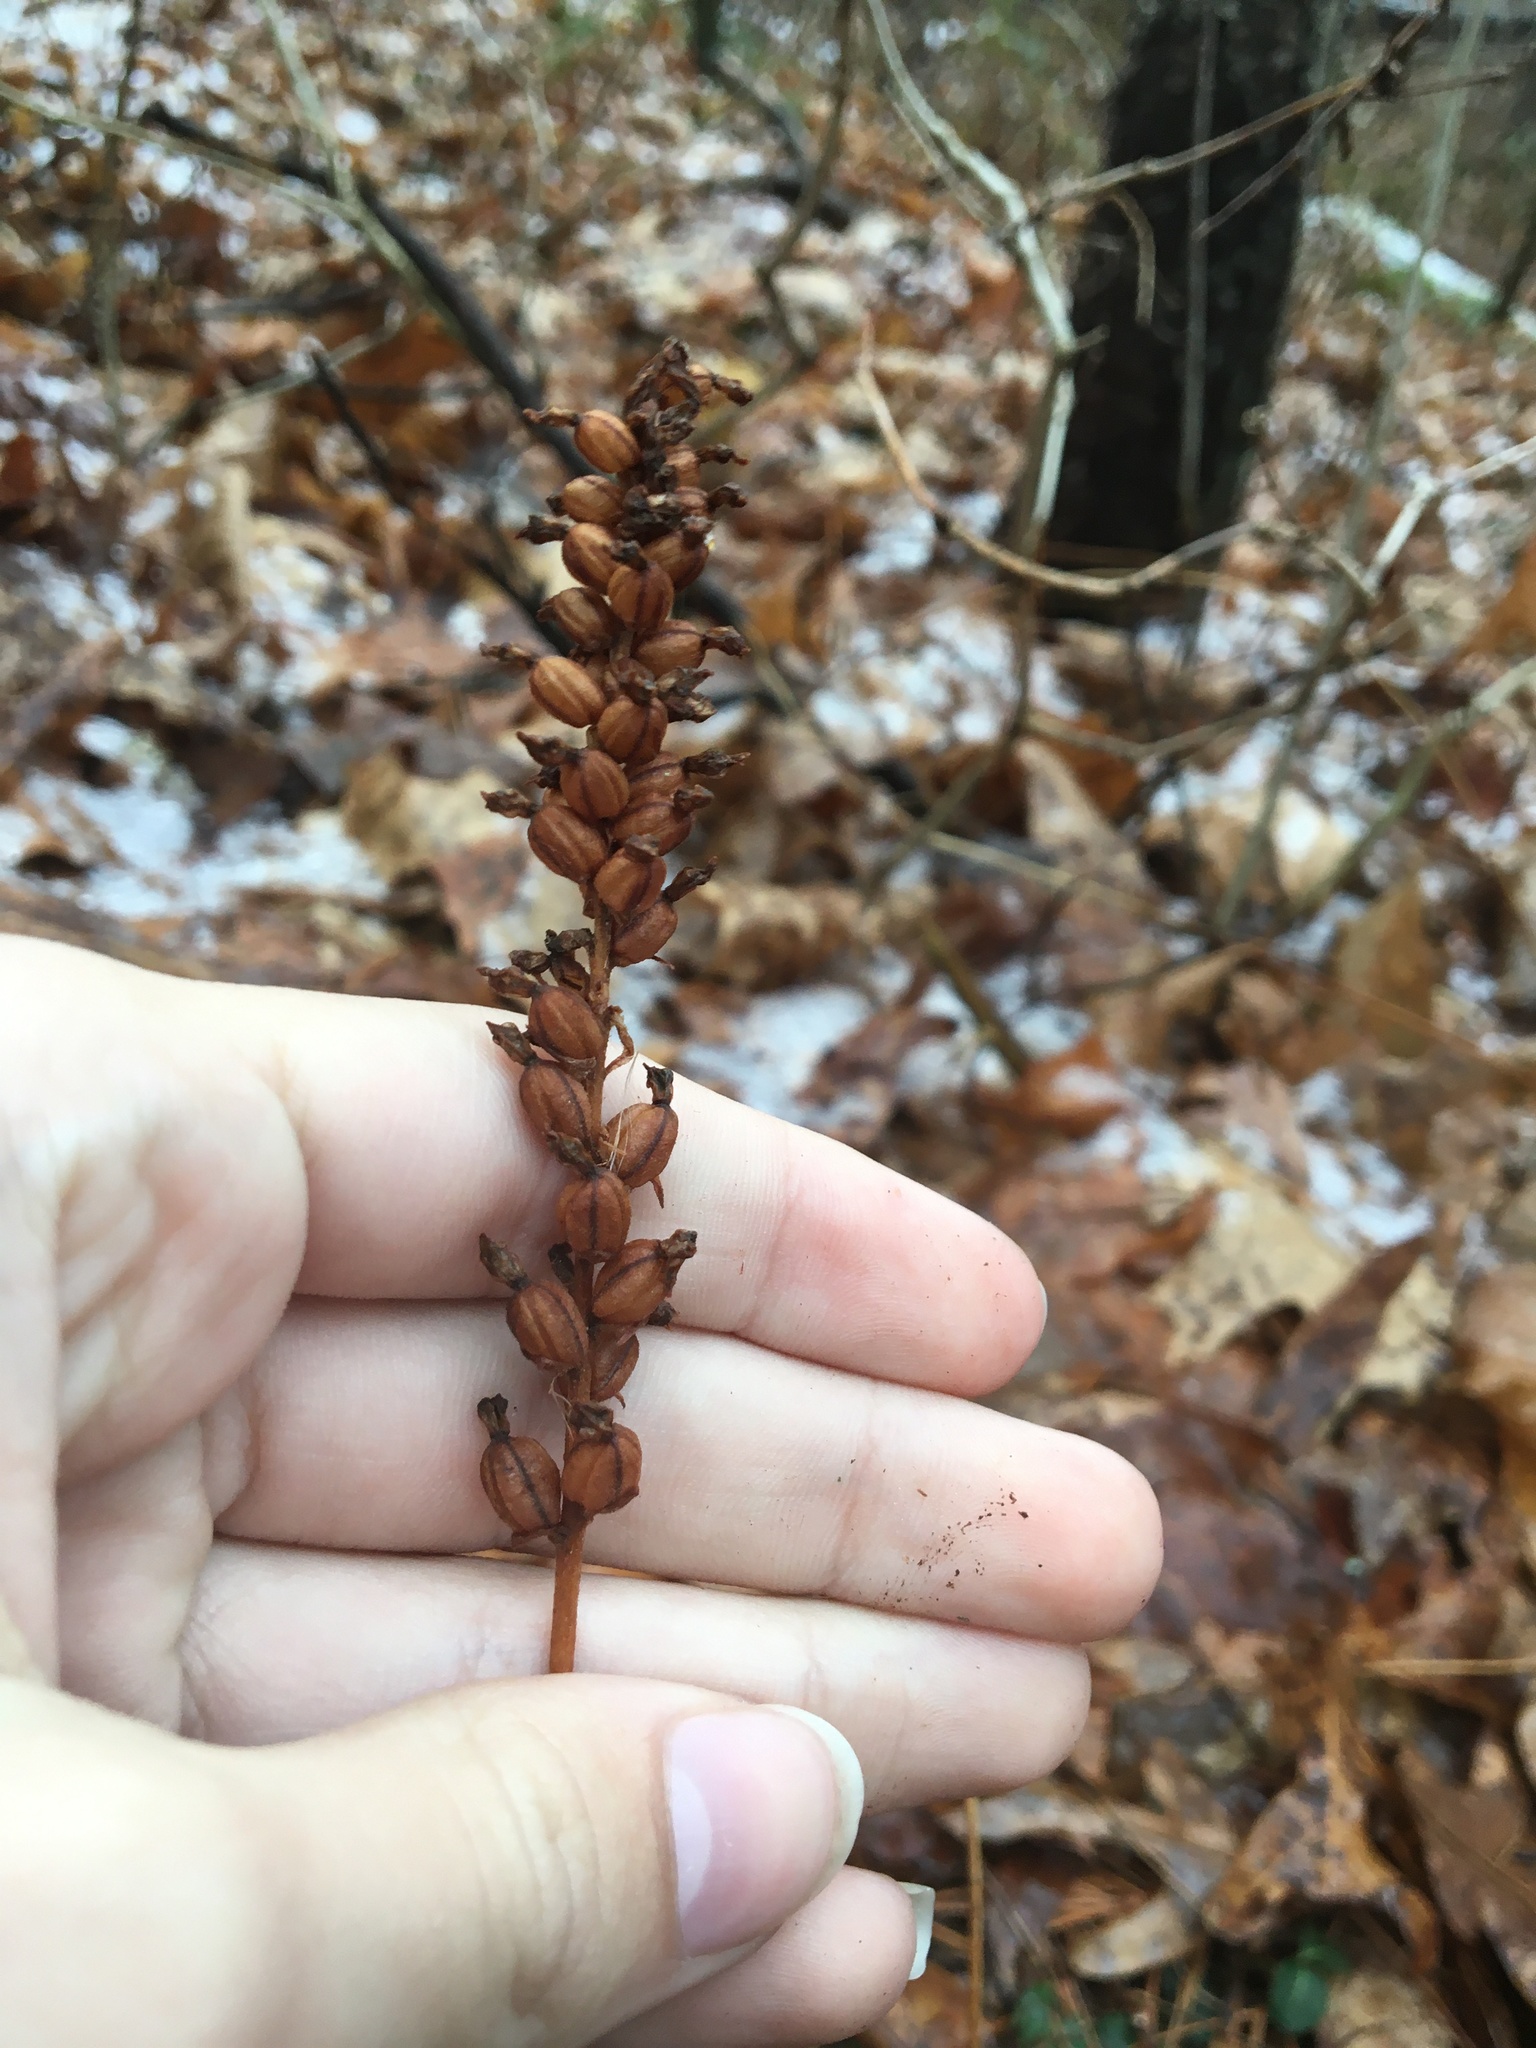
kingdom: Plantae
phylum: Tracheophyta
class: Liliopsida
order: Asparagales
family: Orchidaceae
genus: Goodyera
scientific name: Goodyera pubescens
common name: Downy rattlesnake-plantain
